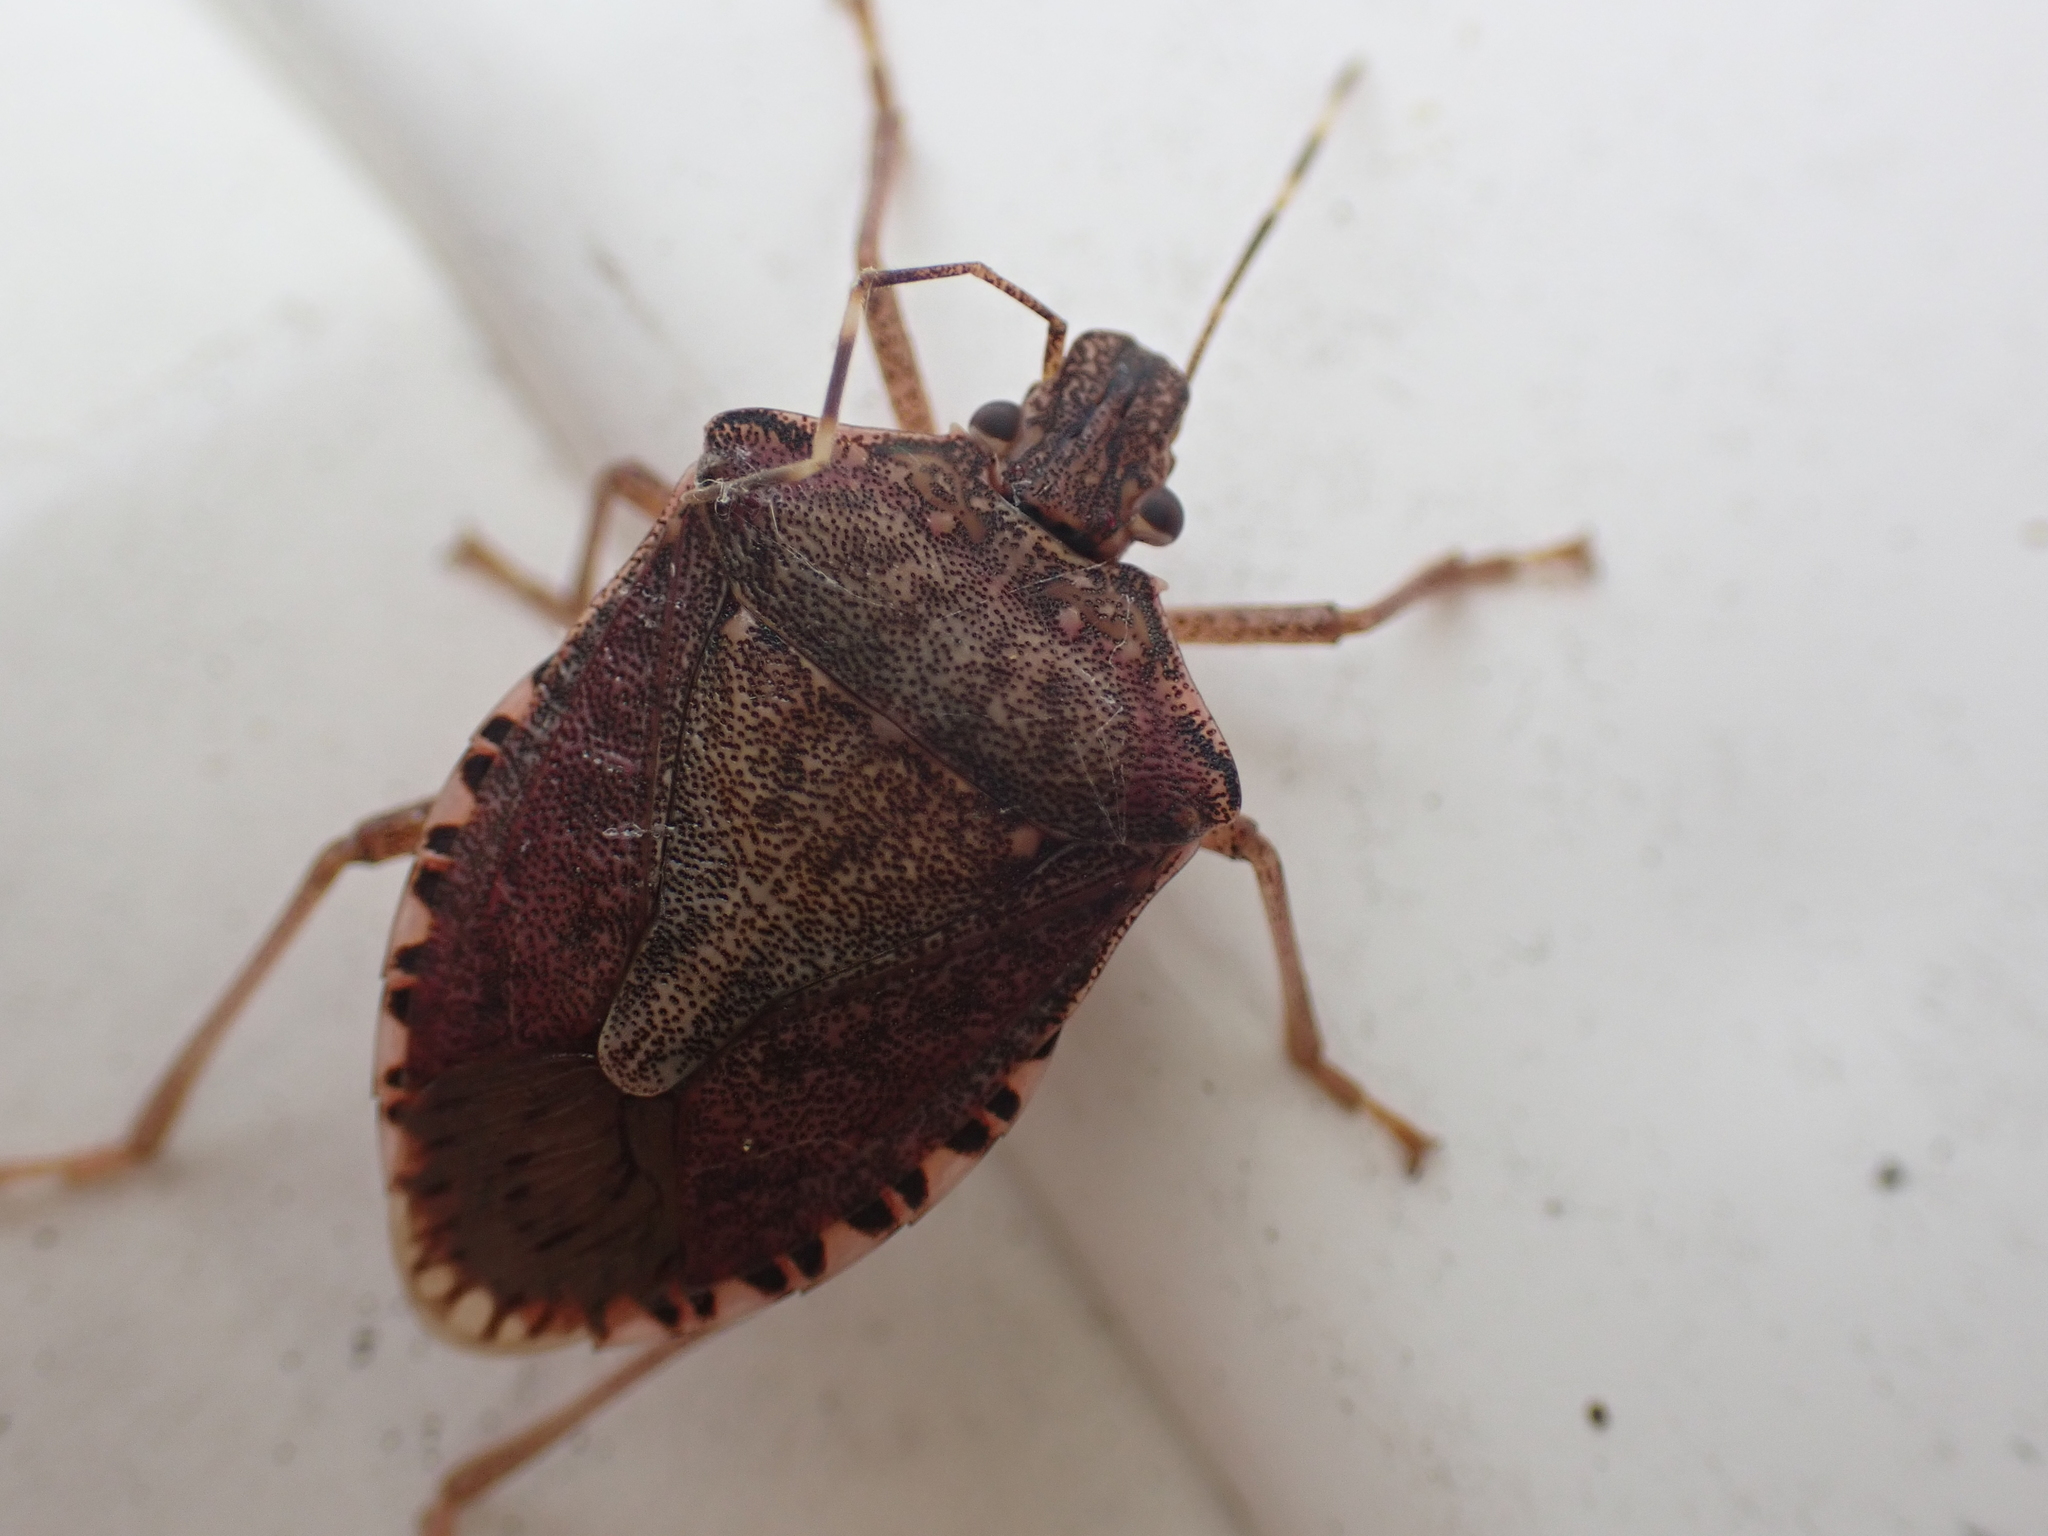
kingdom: Animalia
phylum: Arthropoda
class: Insecta
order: Hemiptera
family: Pentatomidae
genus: Halyomorpha
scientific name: Halyomorpha halys
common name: Brown marmorated stink bug
